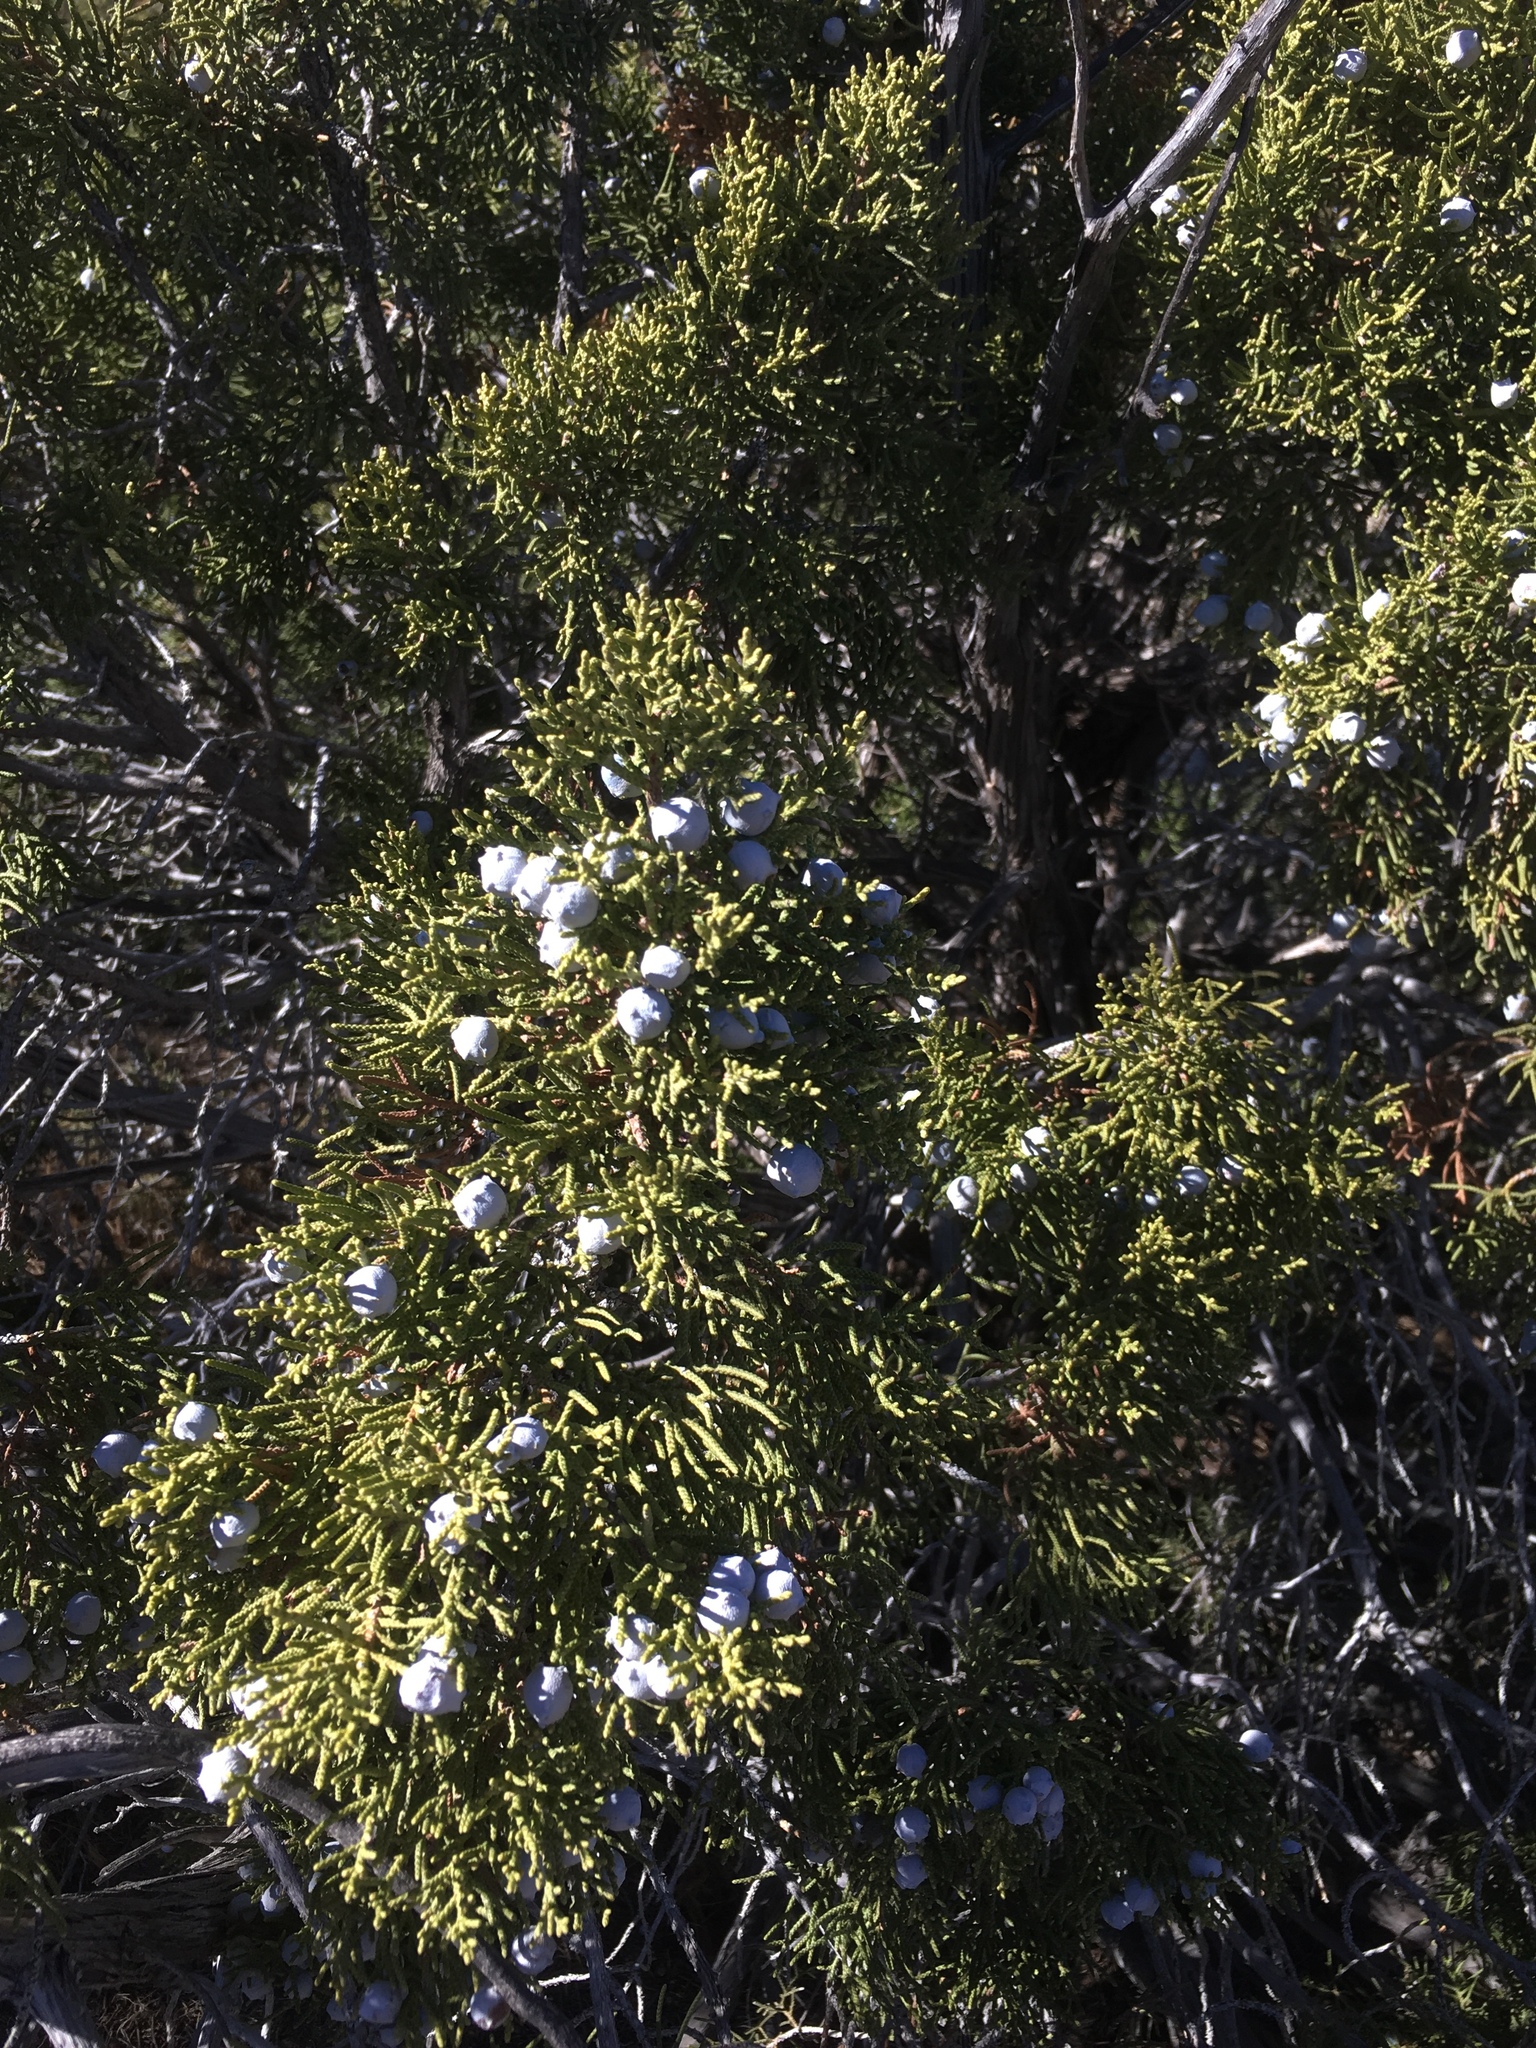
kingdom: Plantae
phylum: Tracheophyta
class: Pinopsida
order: Pinales
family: Cupressaceae
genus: Juniperus
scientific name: Juniperus californica
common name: California juniper
